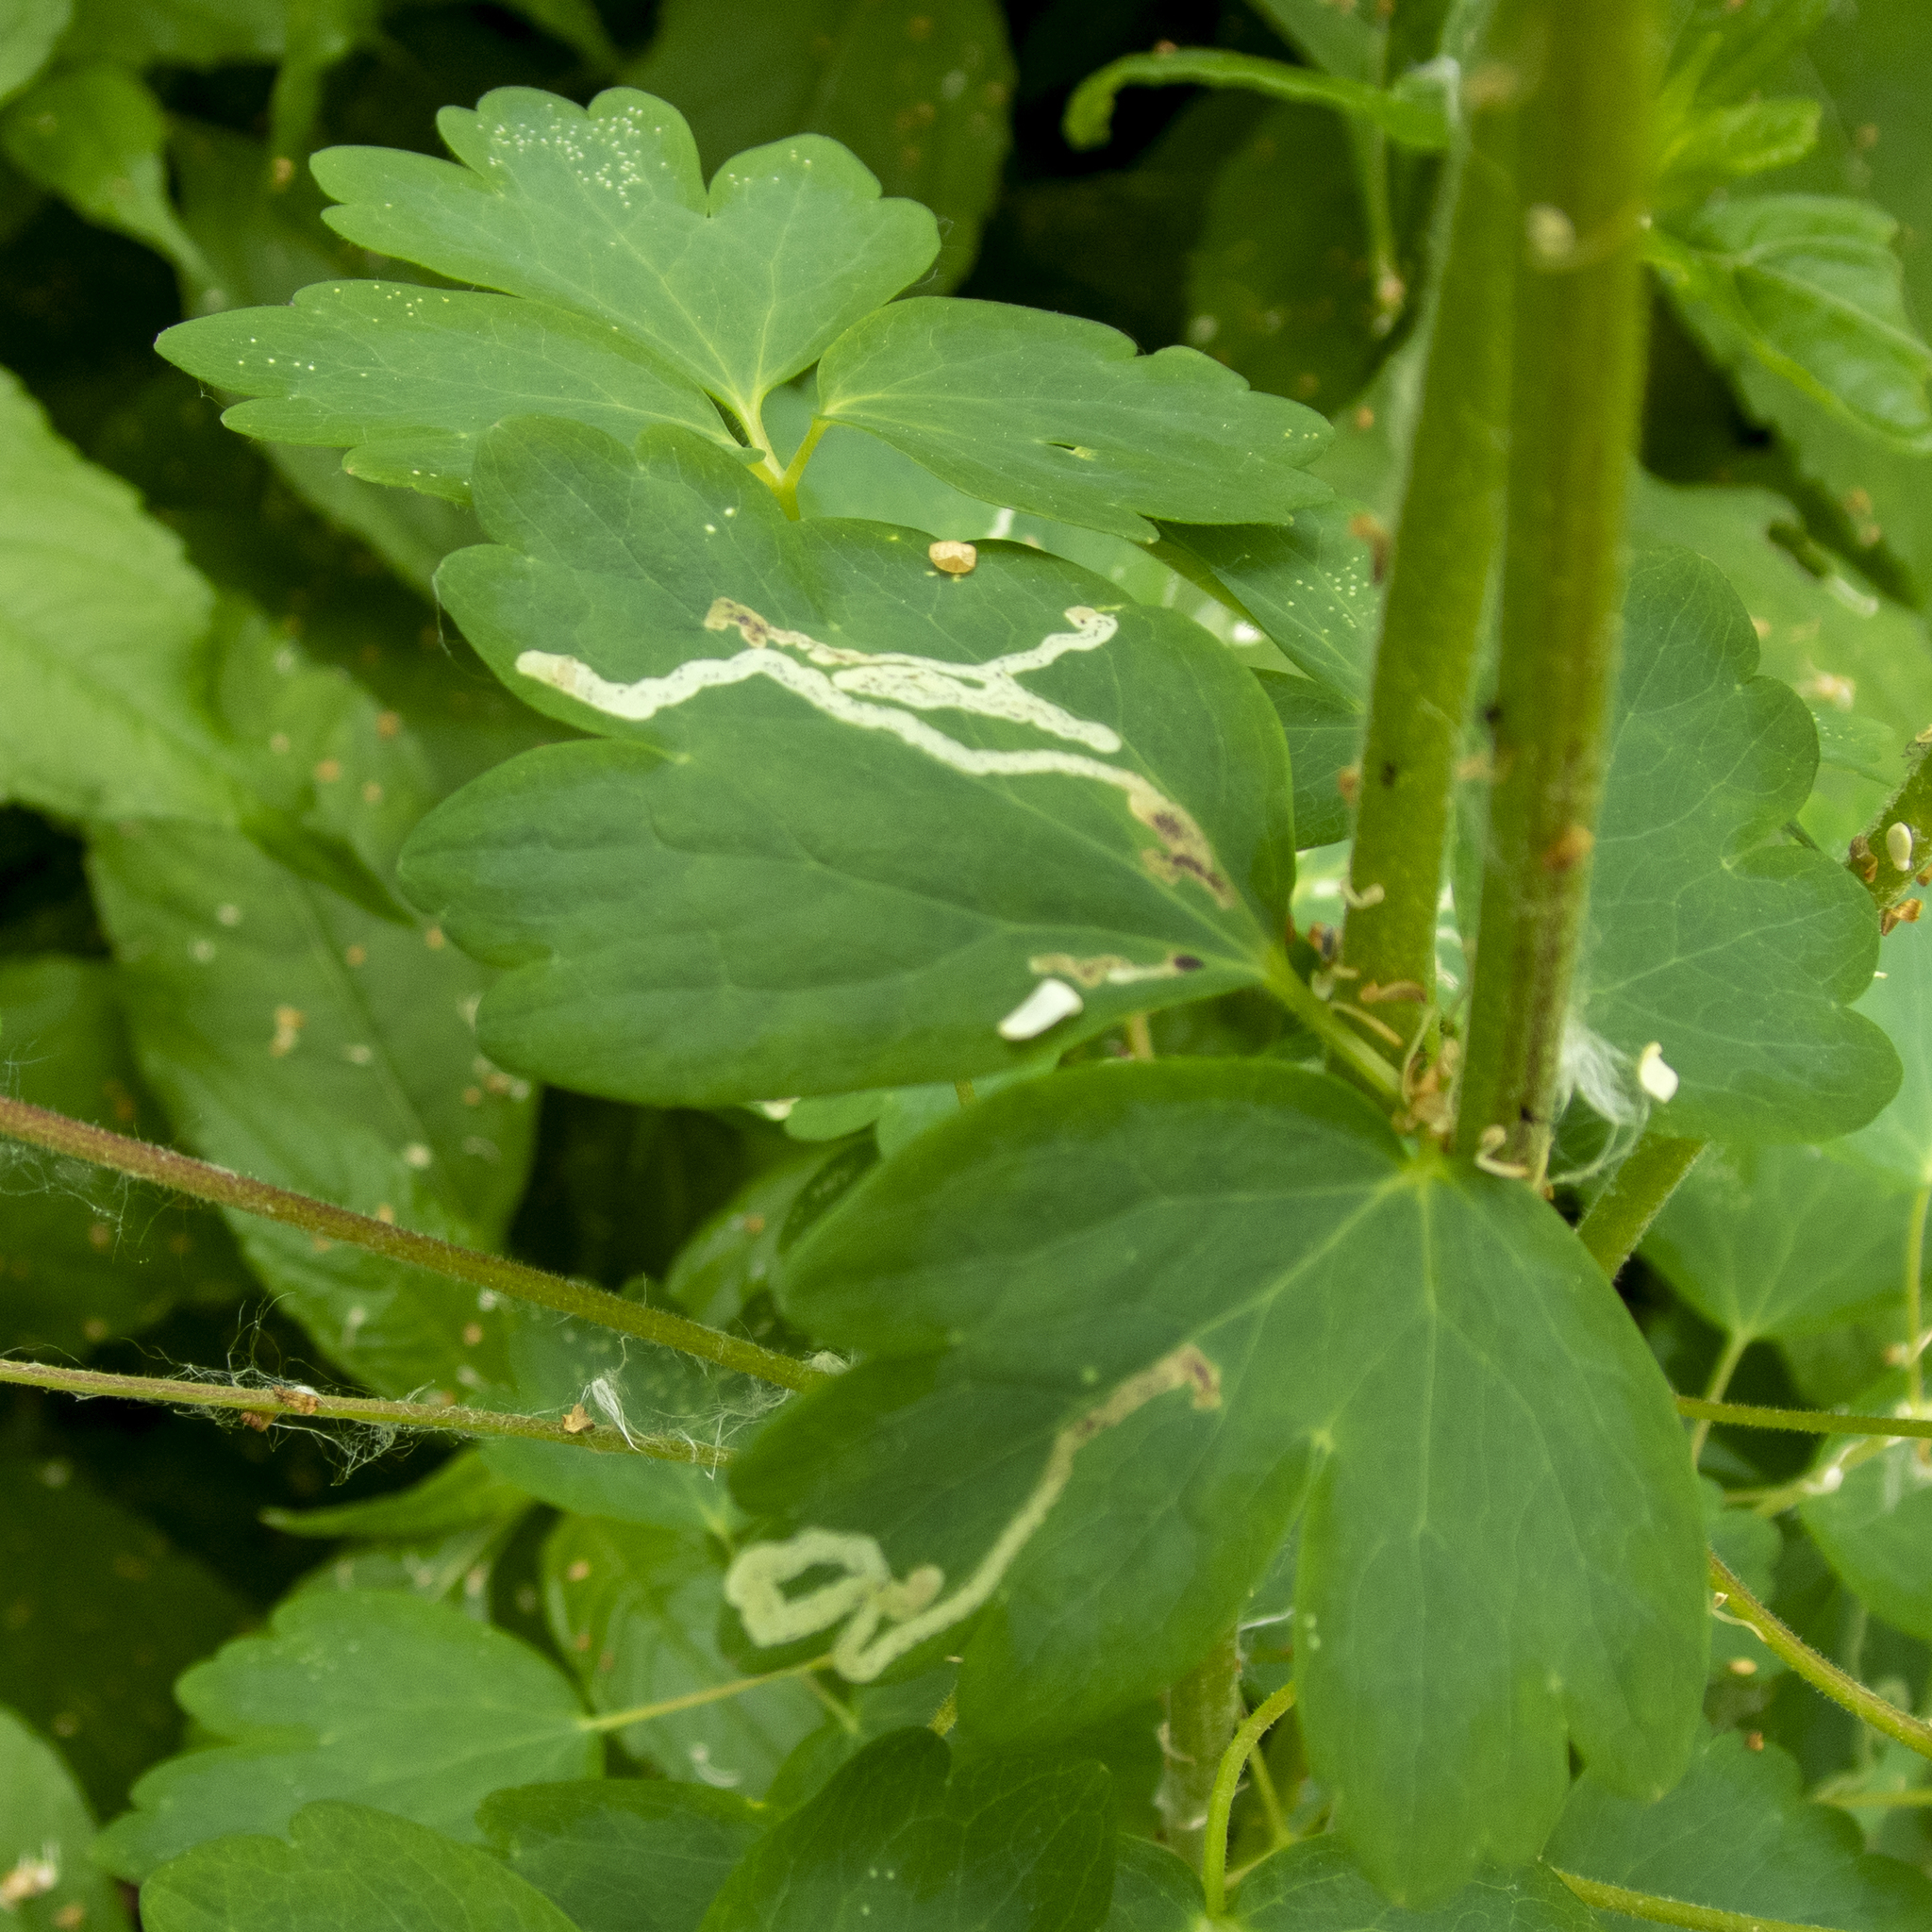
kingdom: Animalia
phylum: Arthropoda
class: Insecta
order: Diptera
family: Agromyzidae
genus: Phytomyza
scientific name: Phytomyza
